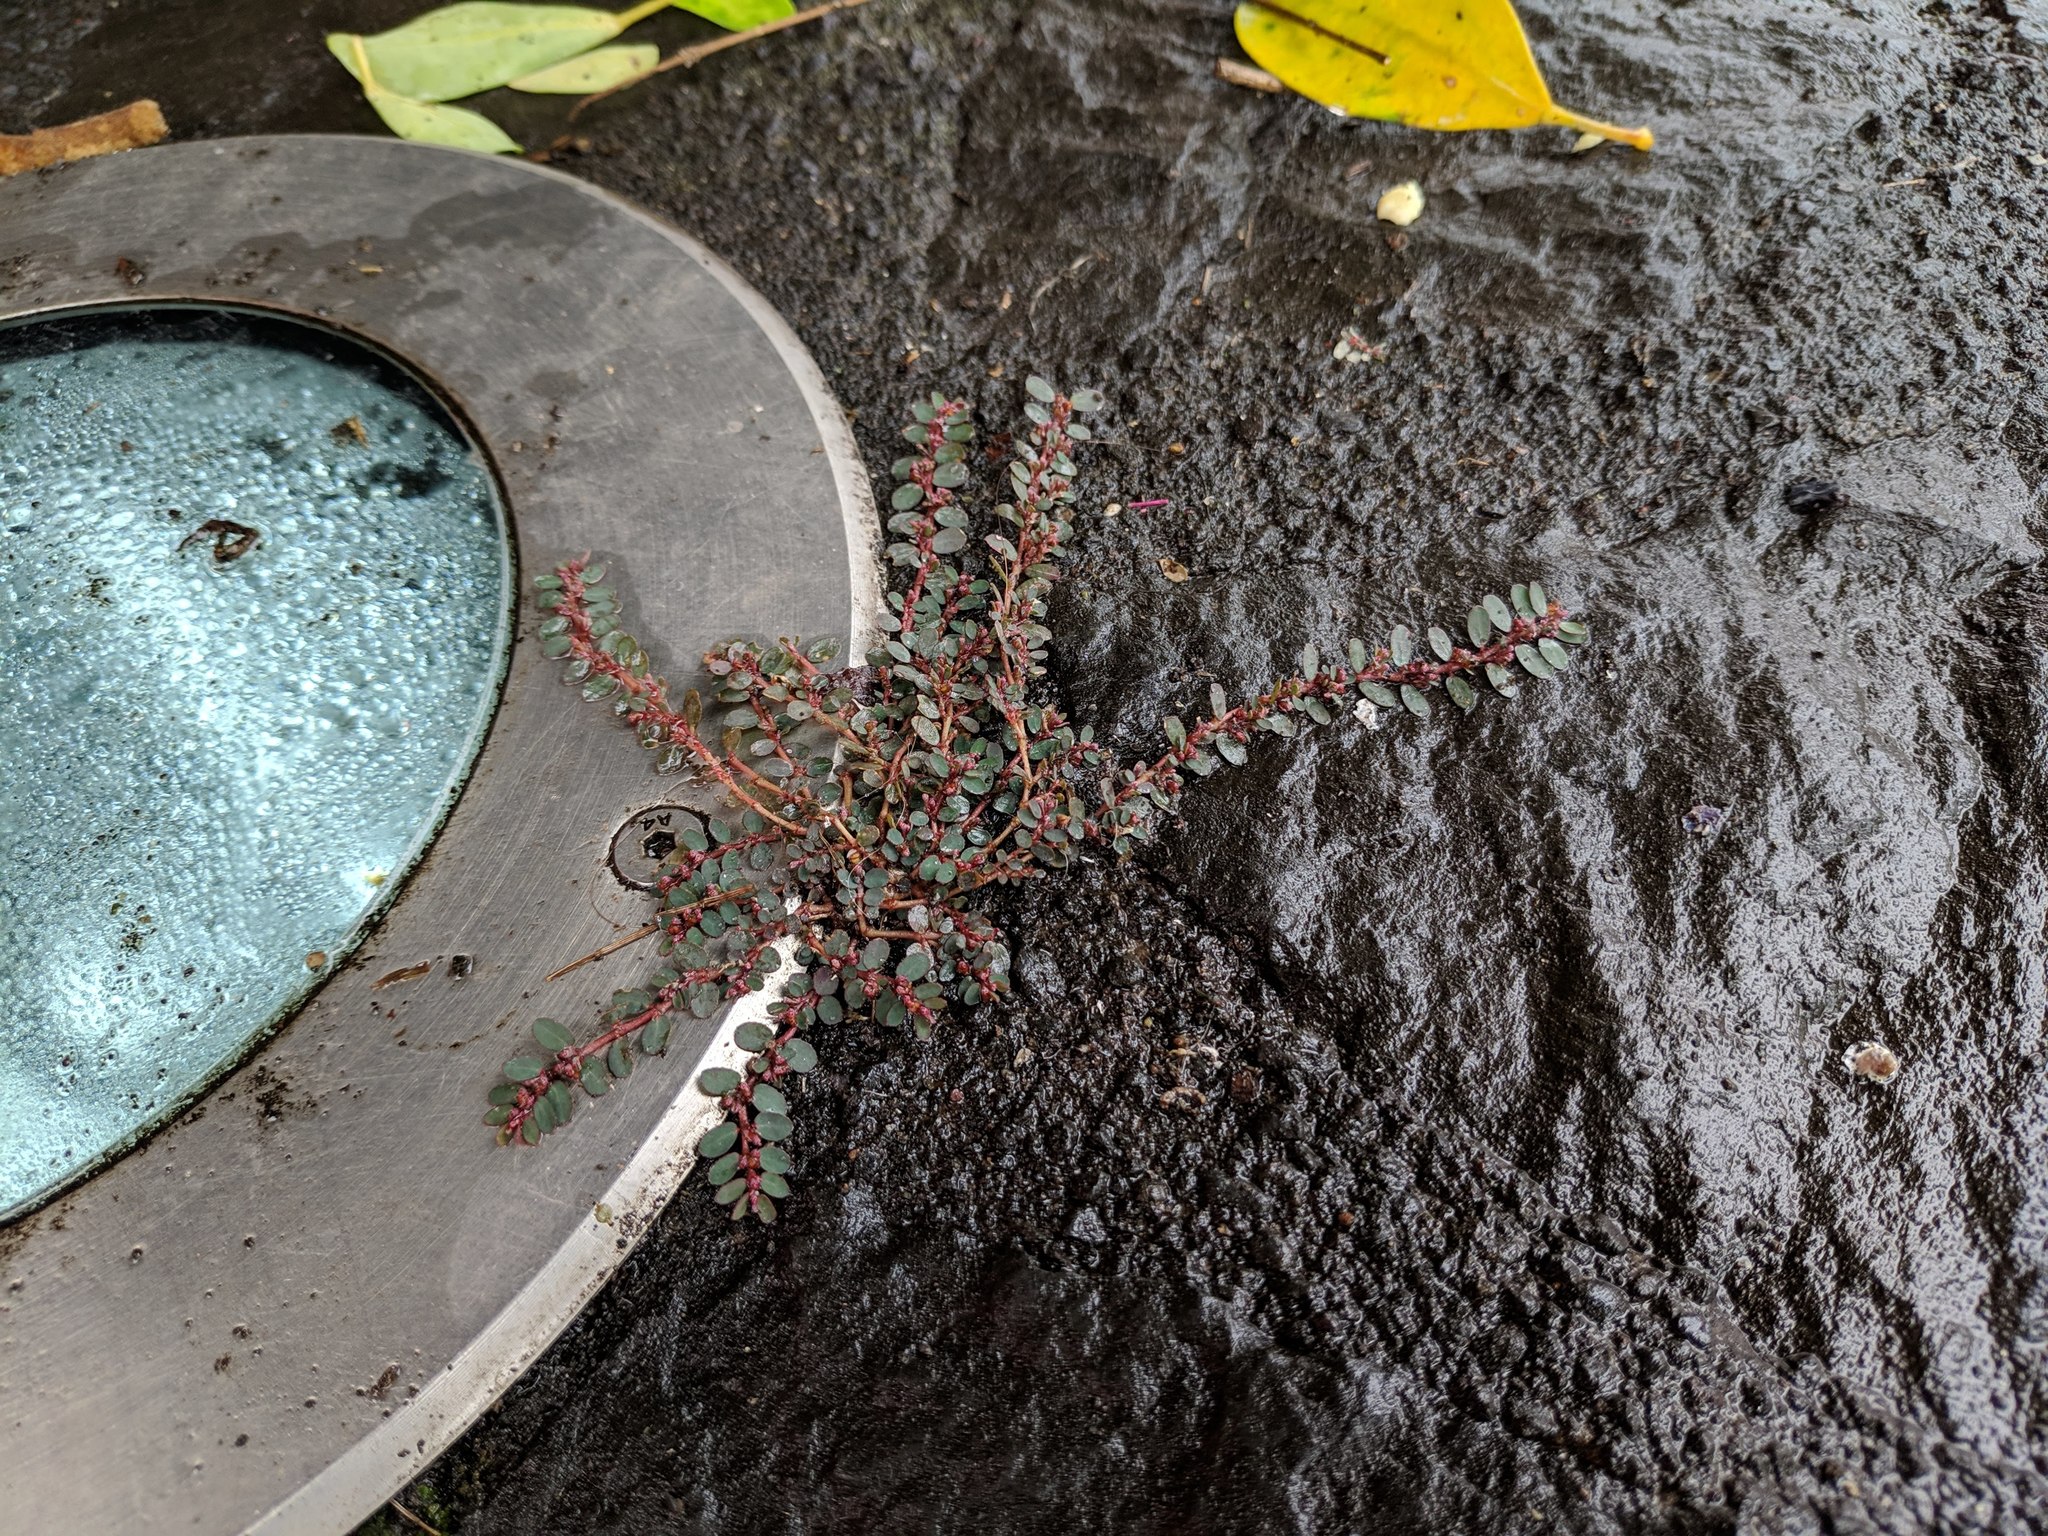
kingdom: Plantae
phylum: Tracheophyta
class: Magnoliopsida
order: Malpighiales
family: Euphorbiaceae
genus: Euphorbia
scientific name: Euphorbia prostrata
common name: Prostrate sandmat
